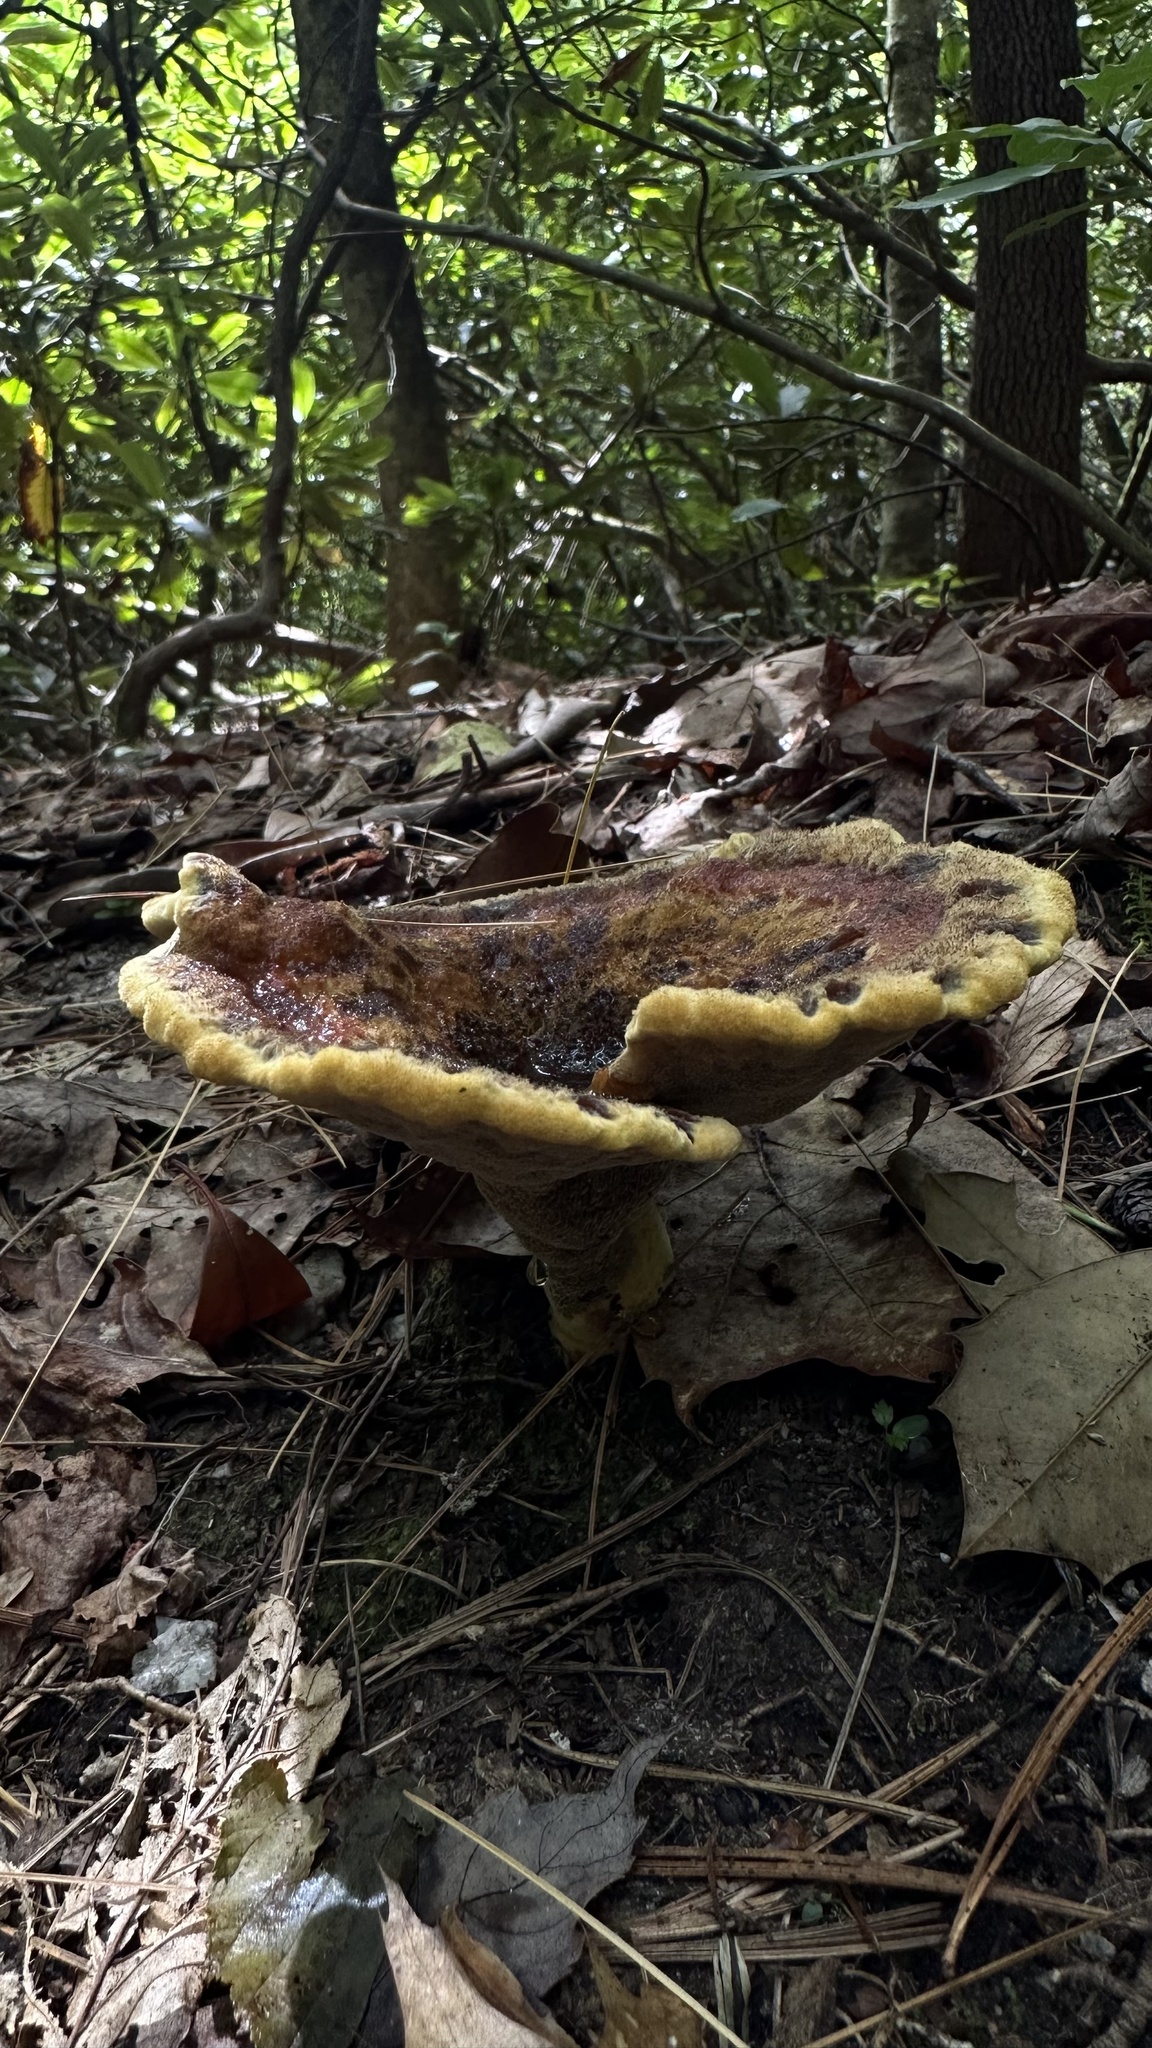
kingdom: Fungi
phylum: Basidiomycota
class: Agaricomycetes
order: Polyporales
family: Laetiporaceae
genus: Phaeolus
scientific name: Phaeolus schweinitzii
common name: Dyer's mazegill
